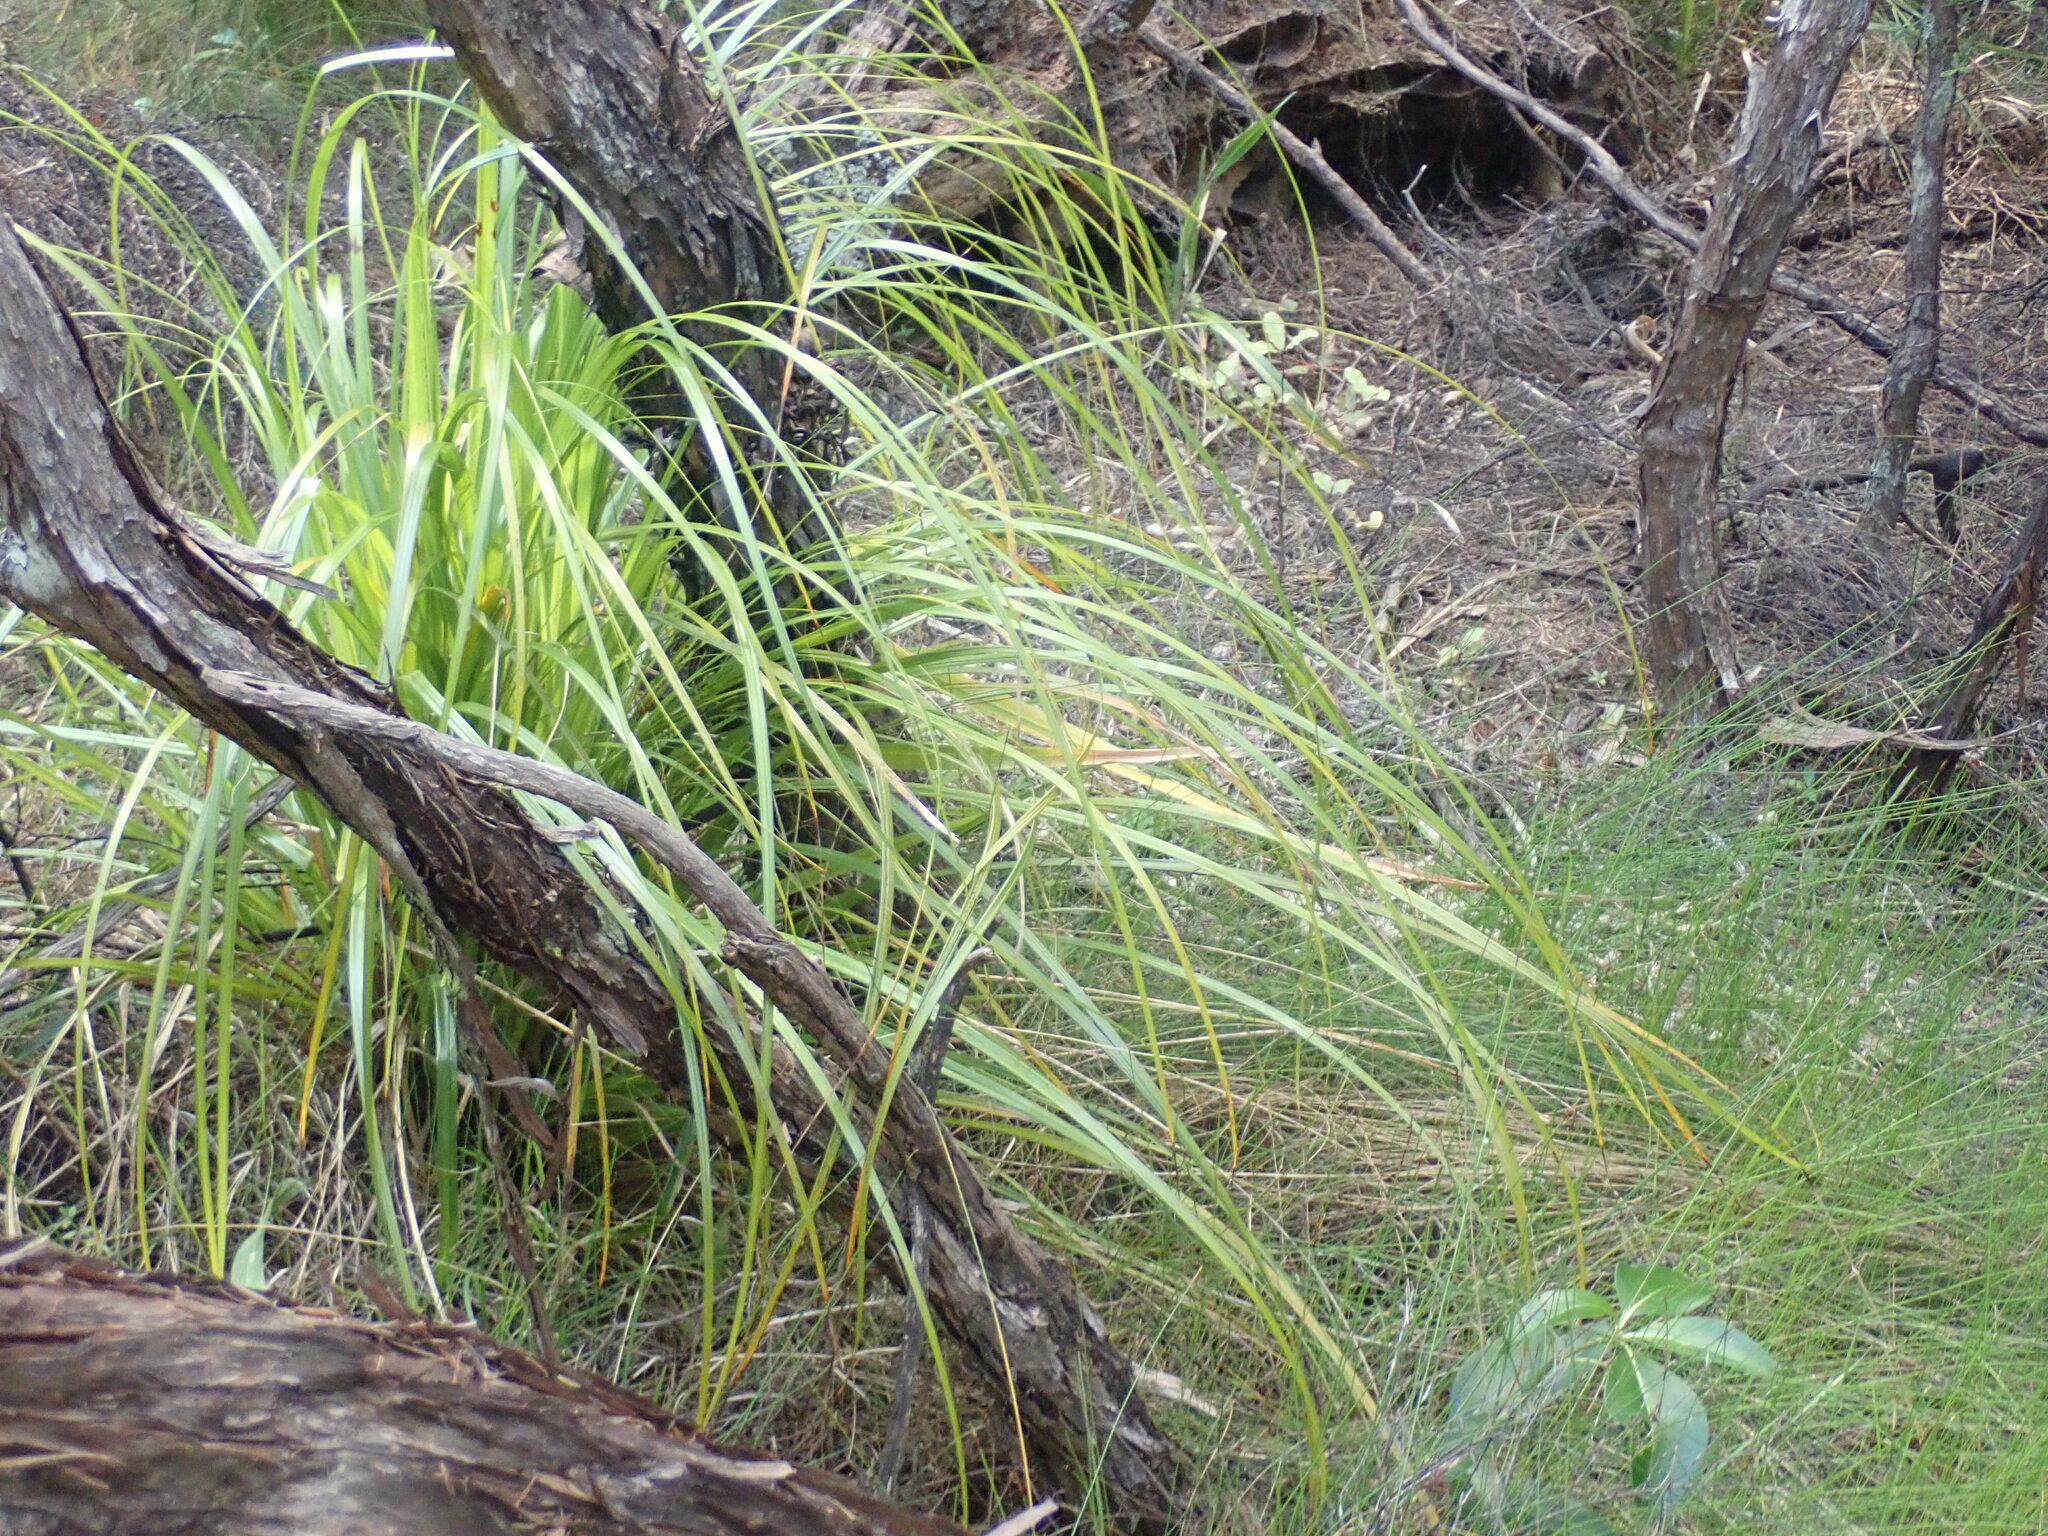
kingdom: Plantae
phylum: Tracheophyta
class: Liliopsida
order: Poales
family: Cyperaceae
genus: Gahnia
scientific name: Gahnia xanthocarpa
